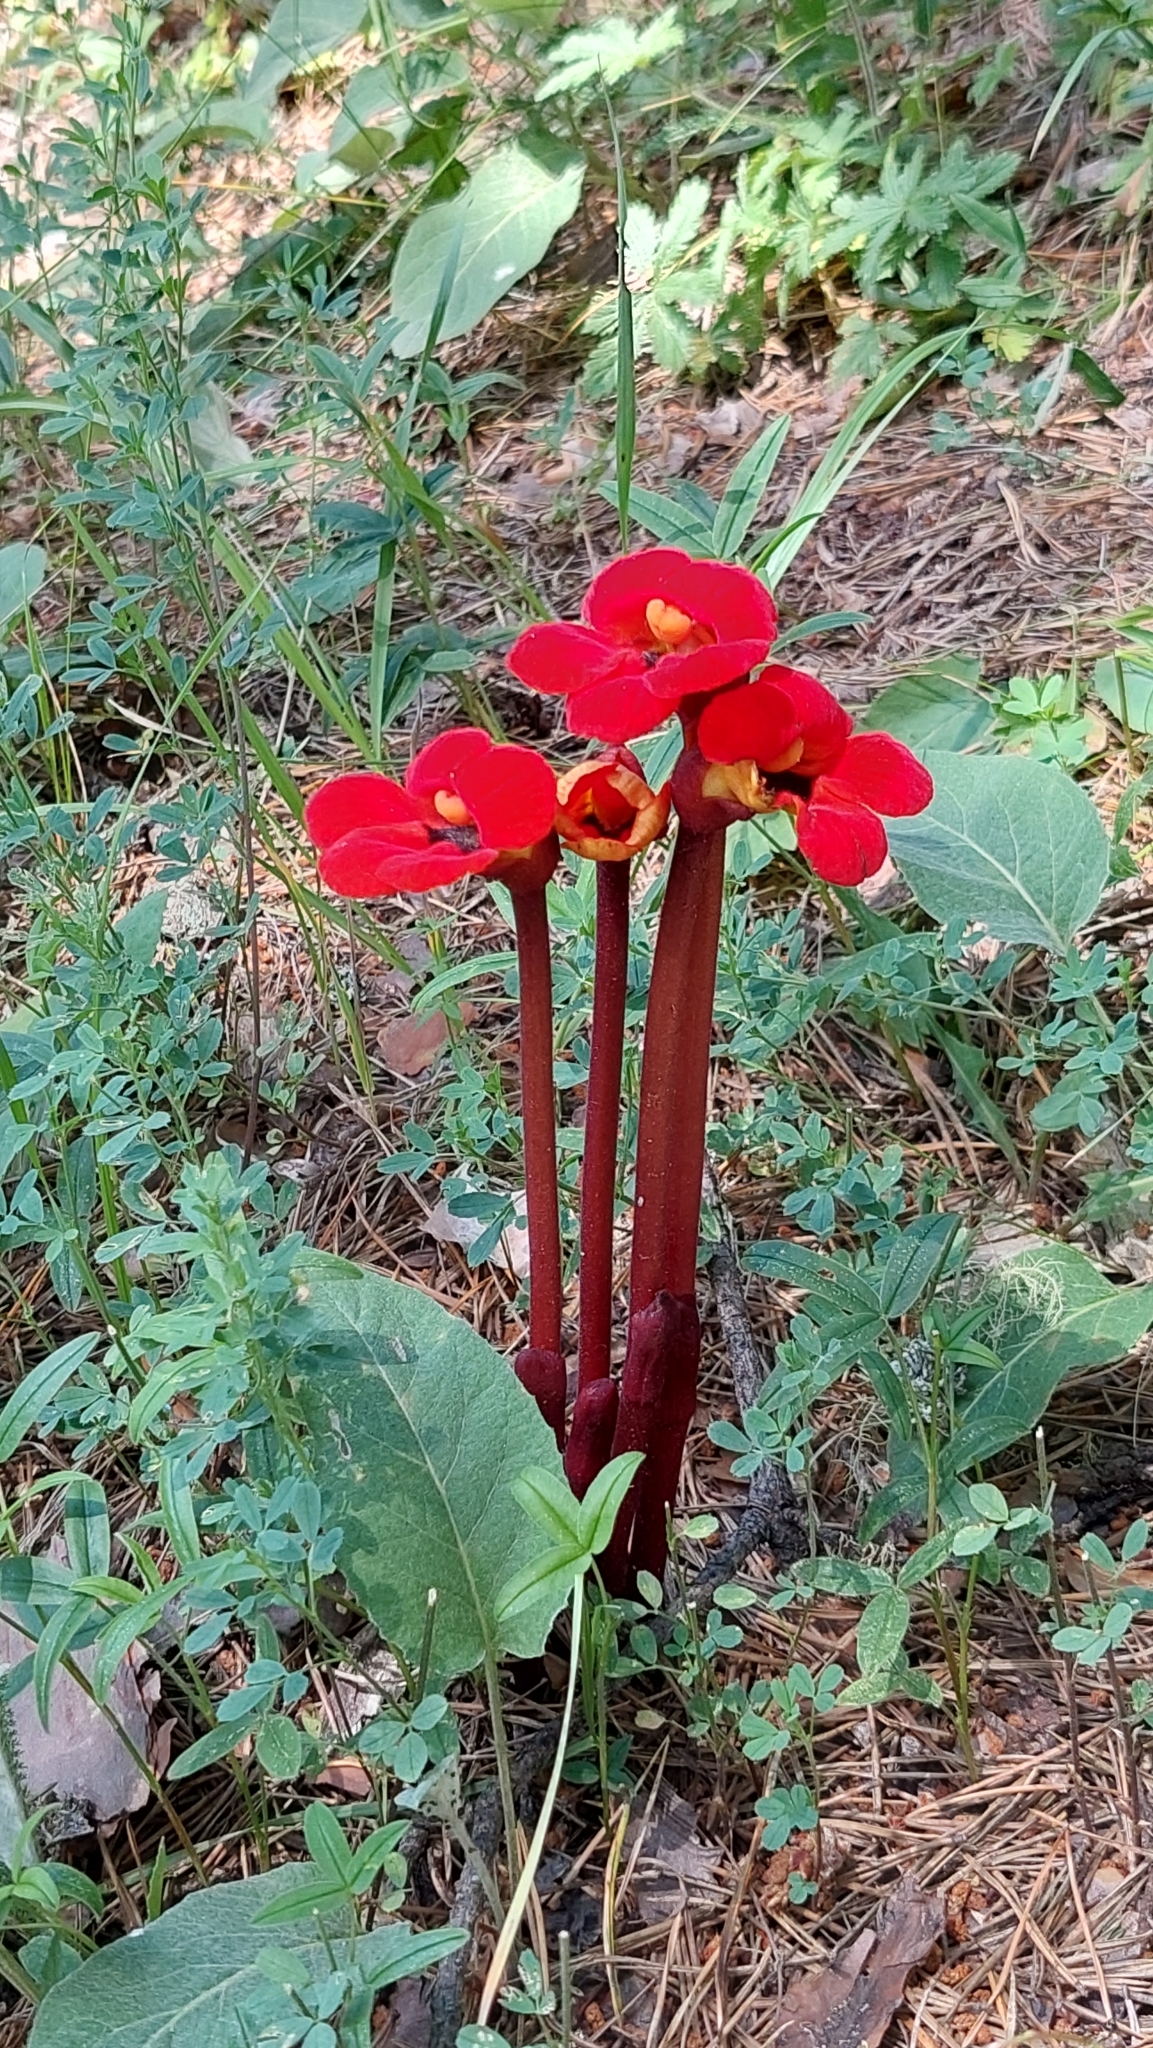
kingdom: Plantae
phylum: Tracheophyta
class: Magnoliopsida
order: Lamiales
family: Orobanchaceae
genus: Diphelypaea
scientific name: Diphelypaea coccinea
